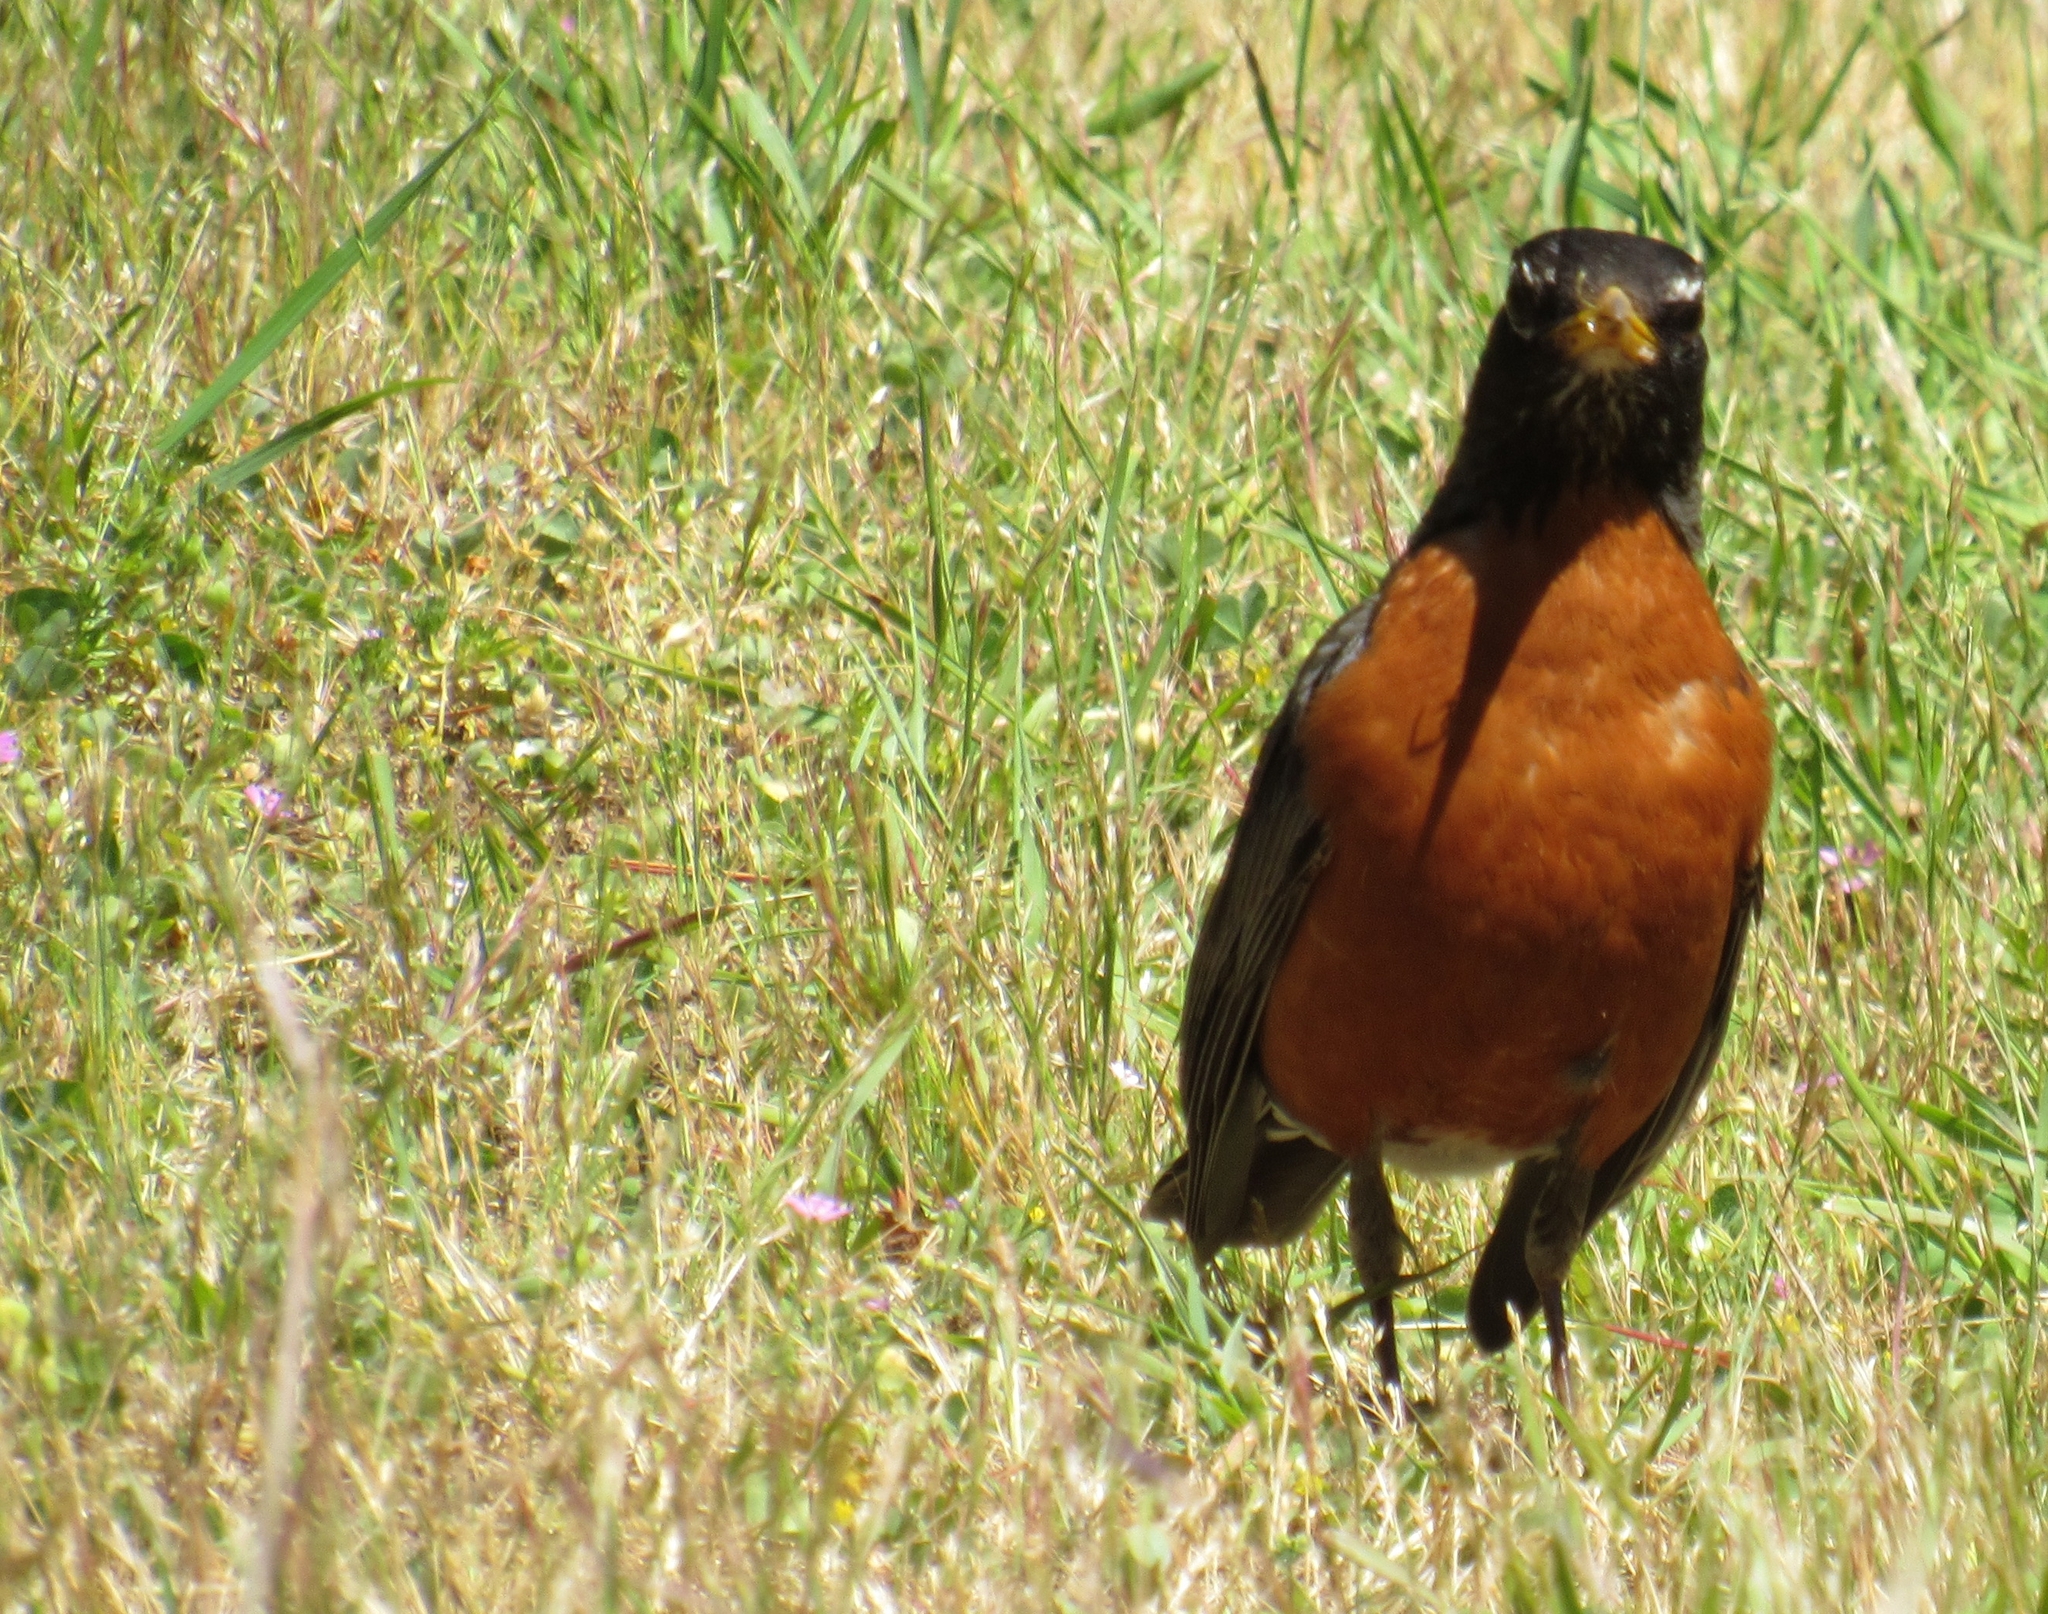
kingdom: Animalia
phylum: Chordata
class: Aves
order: Passeriformes
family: Turdidae
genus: Turdus
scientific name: Turdus migratorius
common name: American robin
